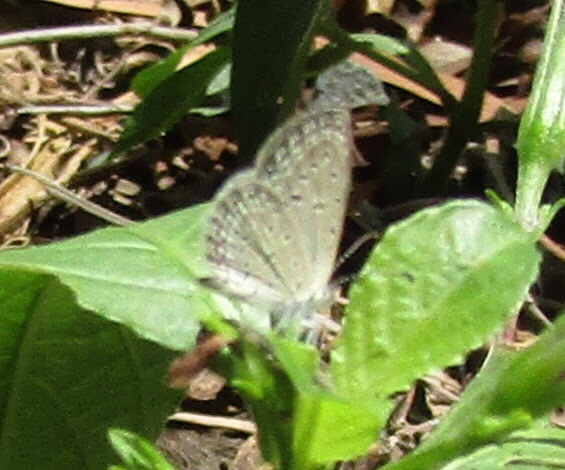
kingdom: Animalia
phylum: Arthropoda
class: Insecta
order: Lepidoptera
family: Lycaenidae
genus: Zizula
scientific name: Zizula hylax
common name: Gaika blue
